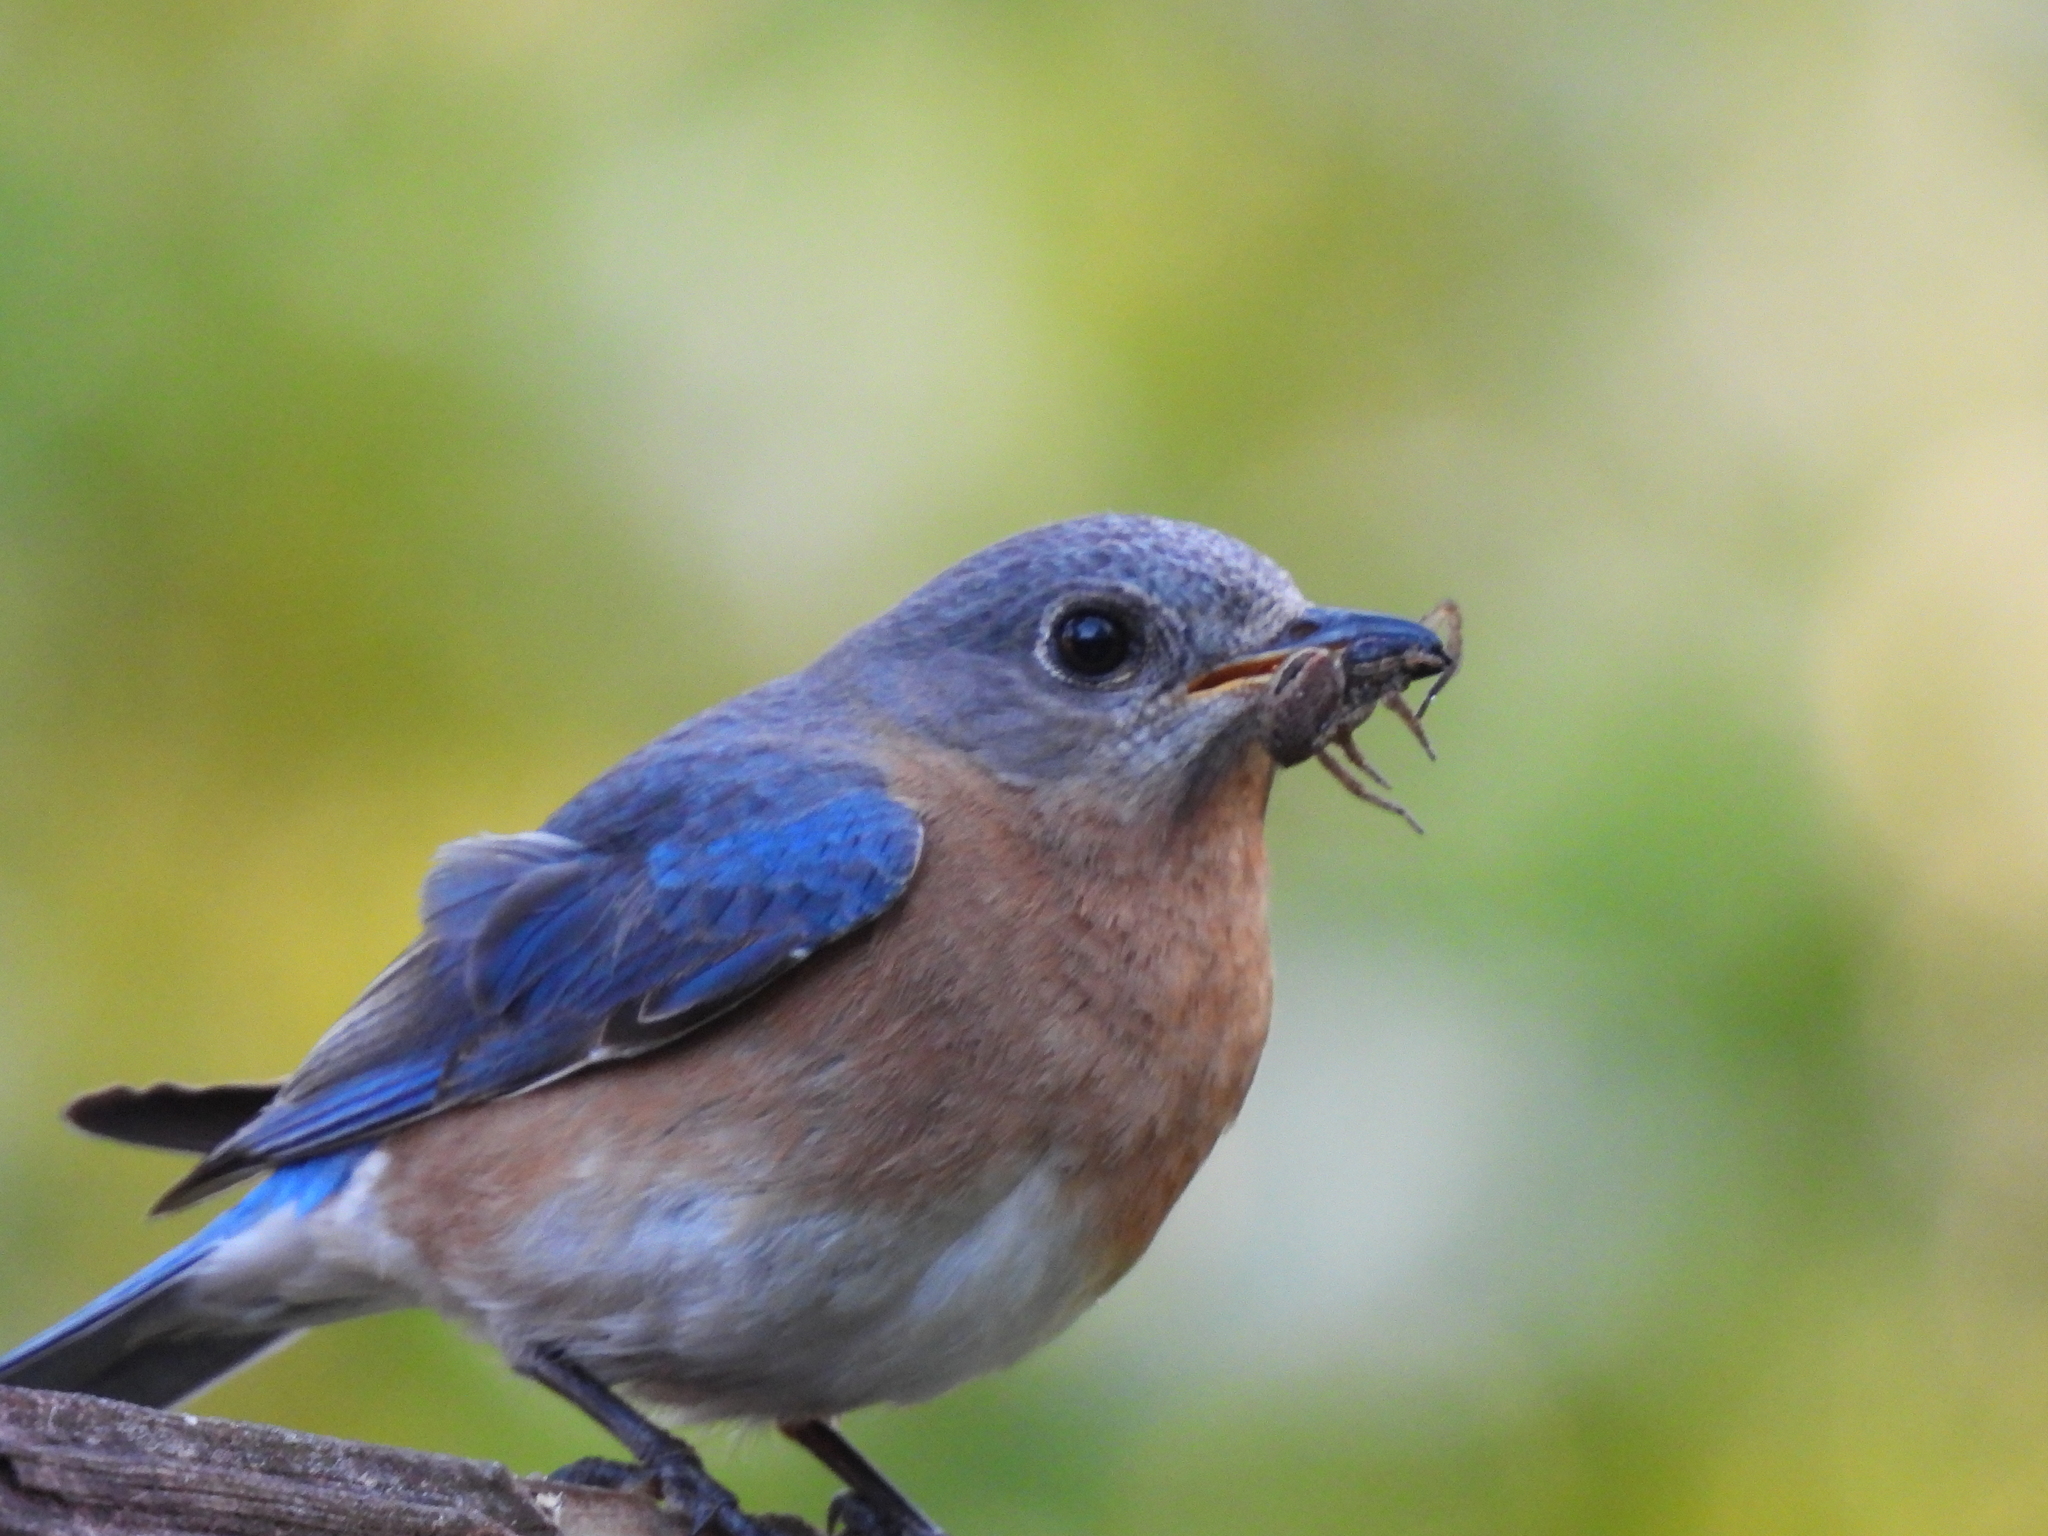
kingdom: Animalia
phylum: Chordata
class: Aves
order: Passeriformes
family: Turdidae
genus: Sialia
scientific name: Sialia sialis
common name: Eastern bluebird
